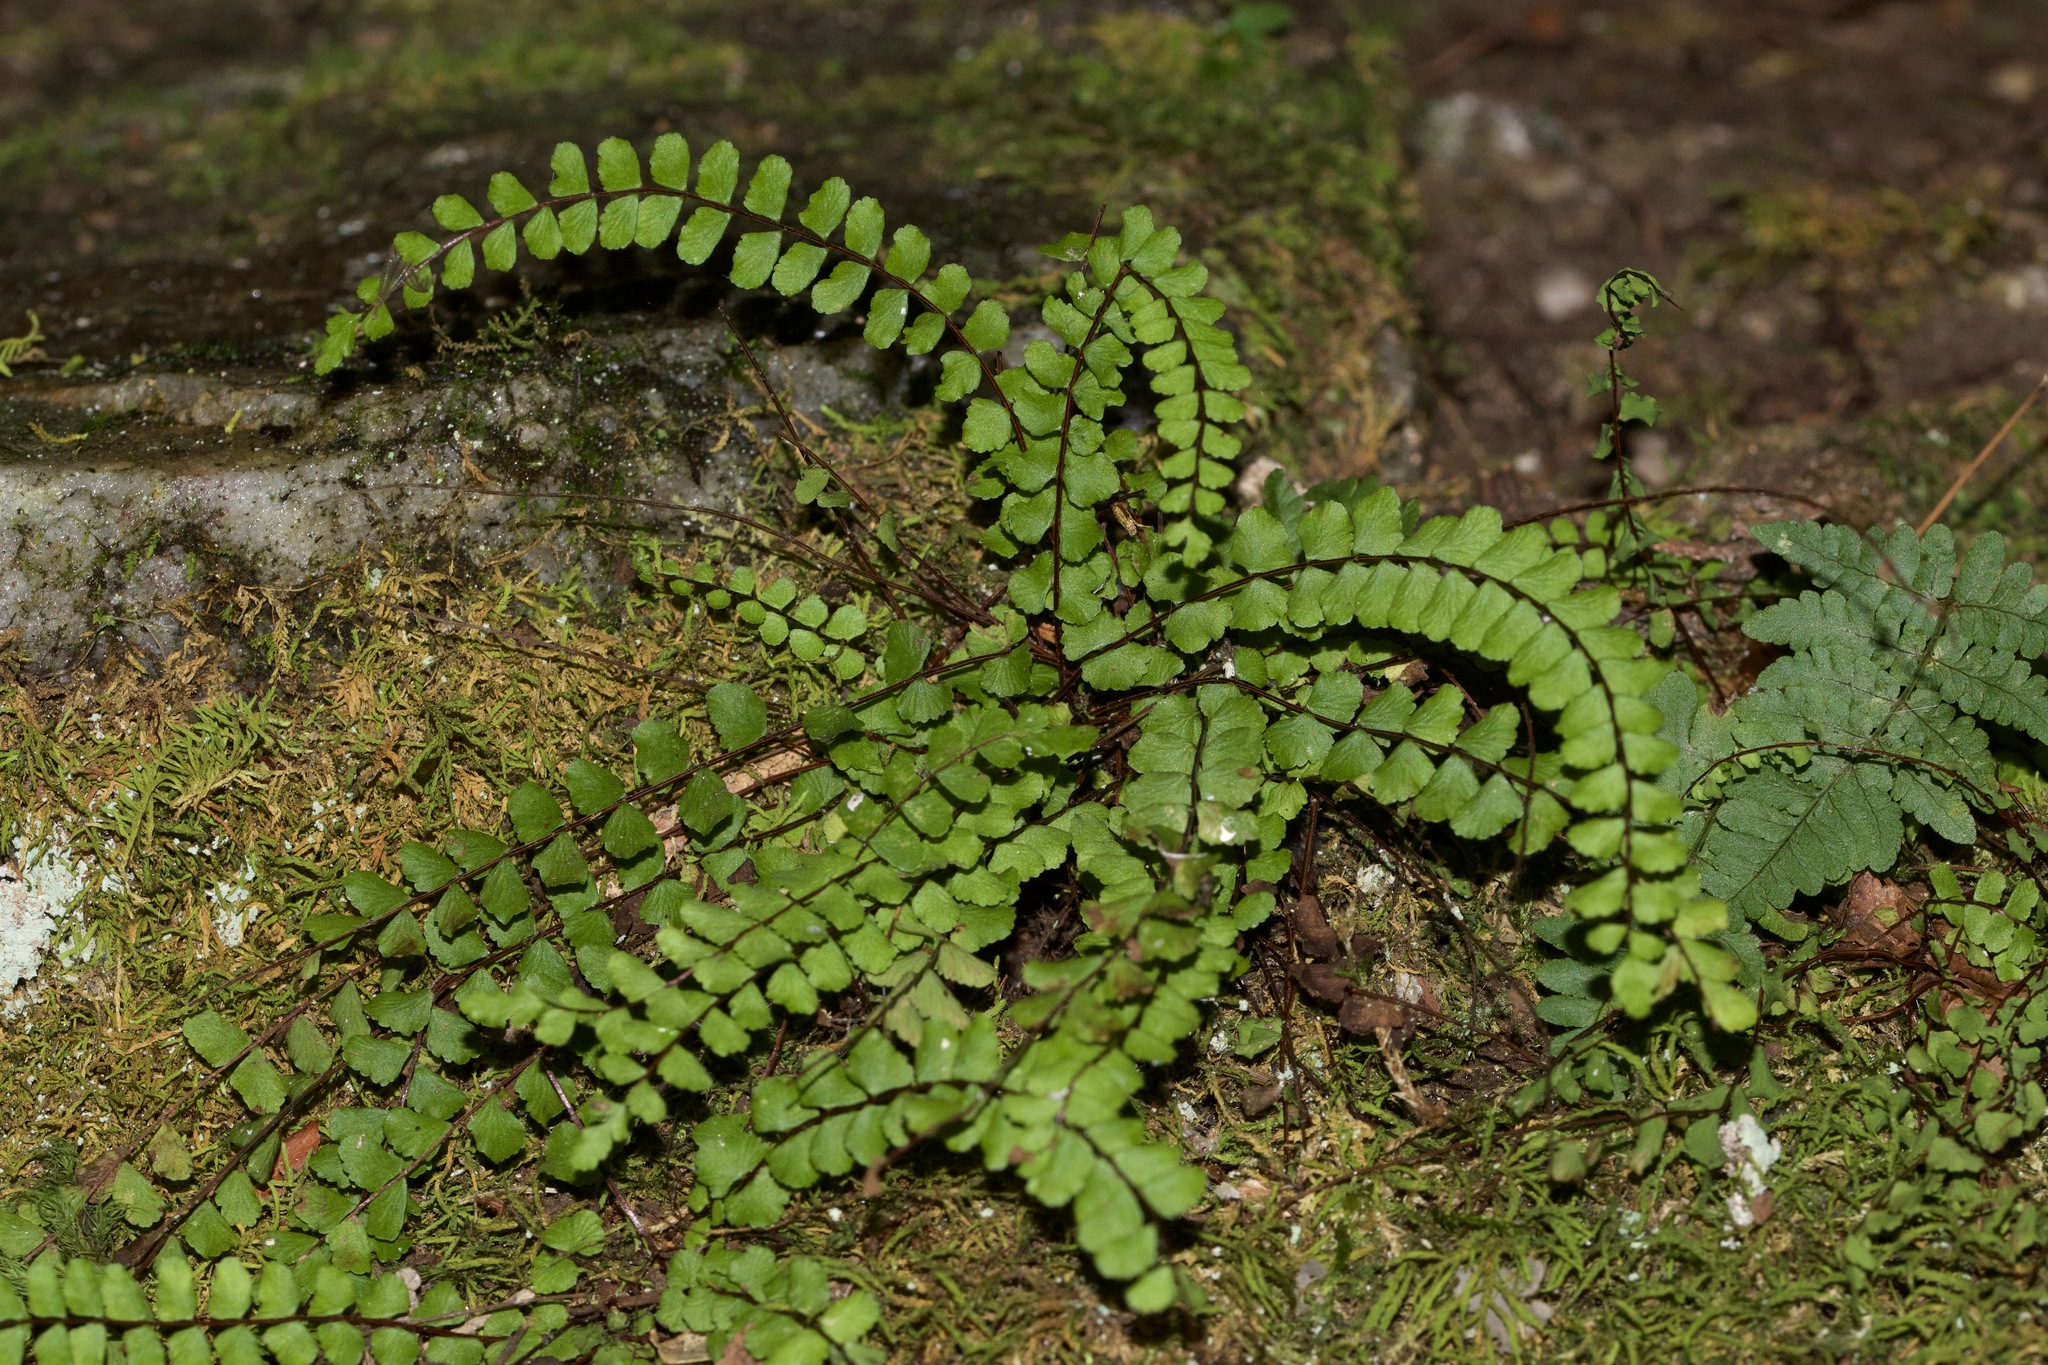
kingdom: Plantae
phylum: Tracheophyta
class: Polypodiopsida
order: Polypodiales
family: Aspleniaceae
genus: Asplenium
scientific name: Asplenium trichomanes
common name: Maidenhair spleenwort
